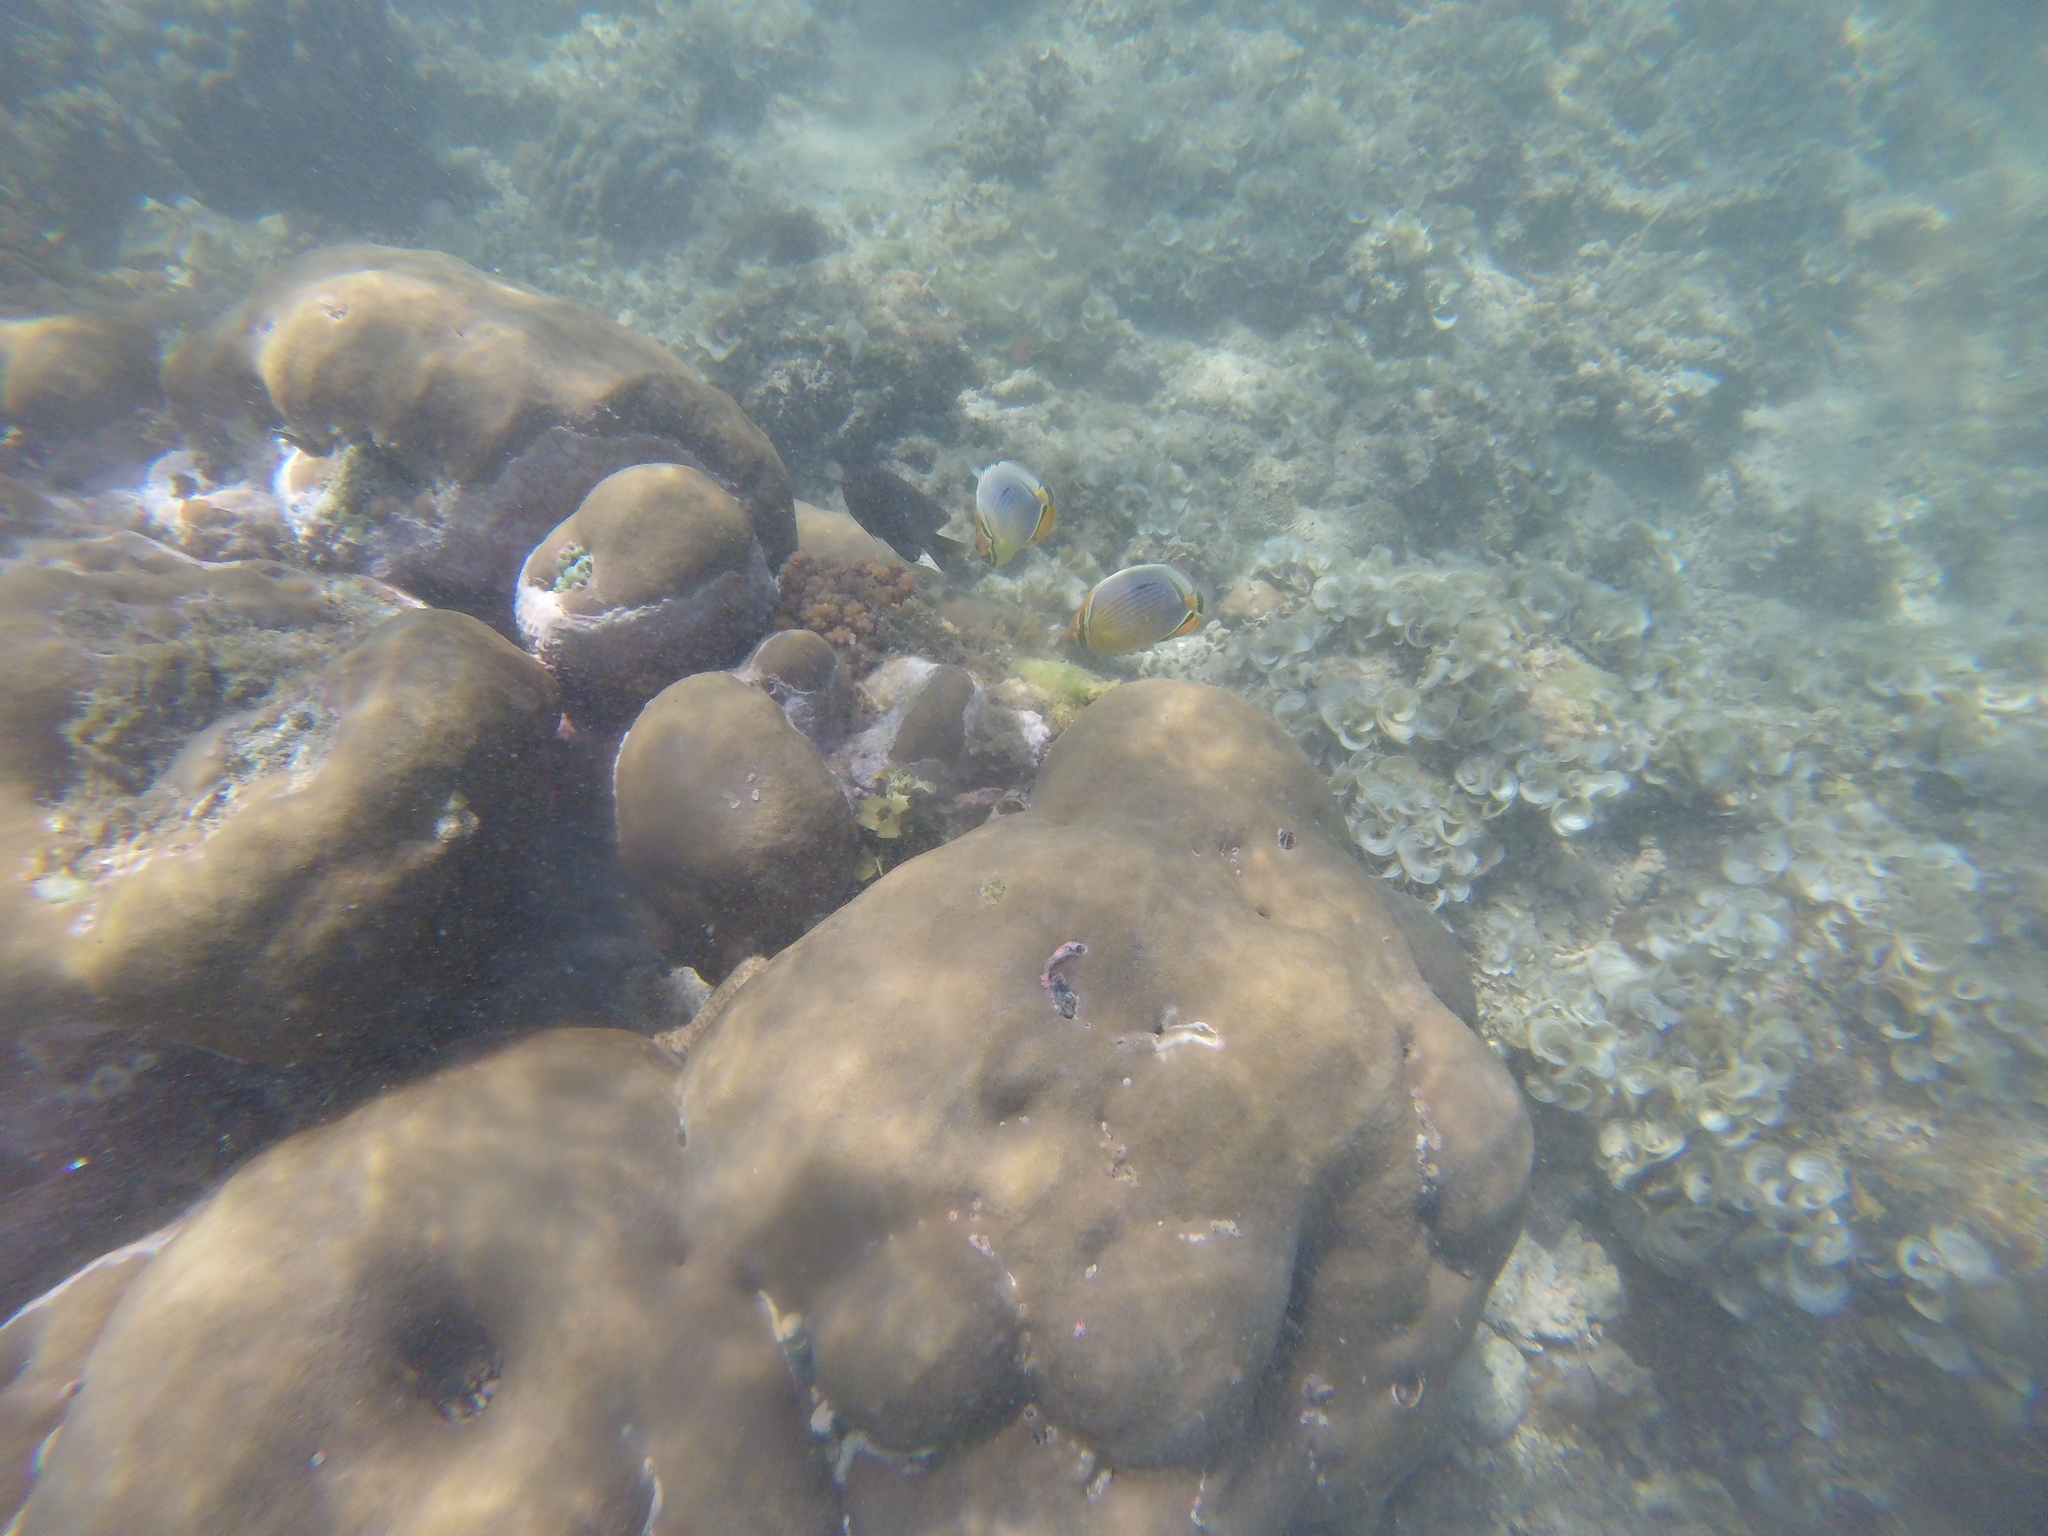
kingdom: Animalia
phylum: Chordata
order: Perciformes
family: Chaetodontidae
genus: Chaetodon
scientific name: Chaetodon trifasciatus
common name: Redfin butterflyfish
